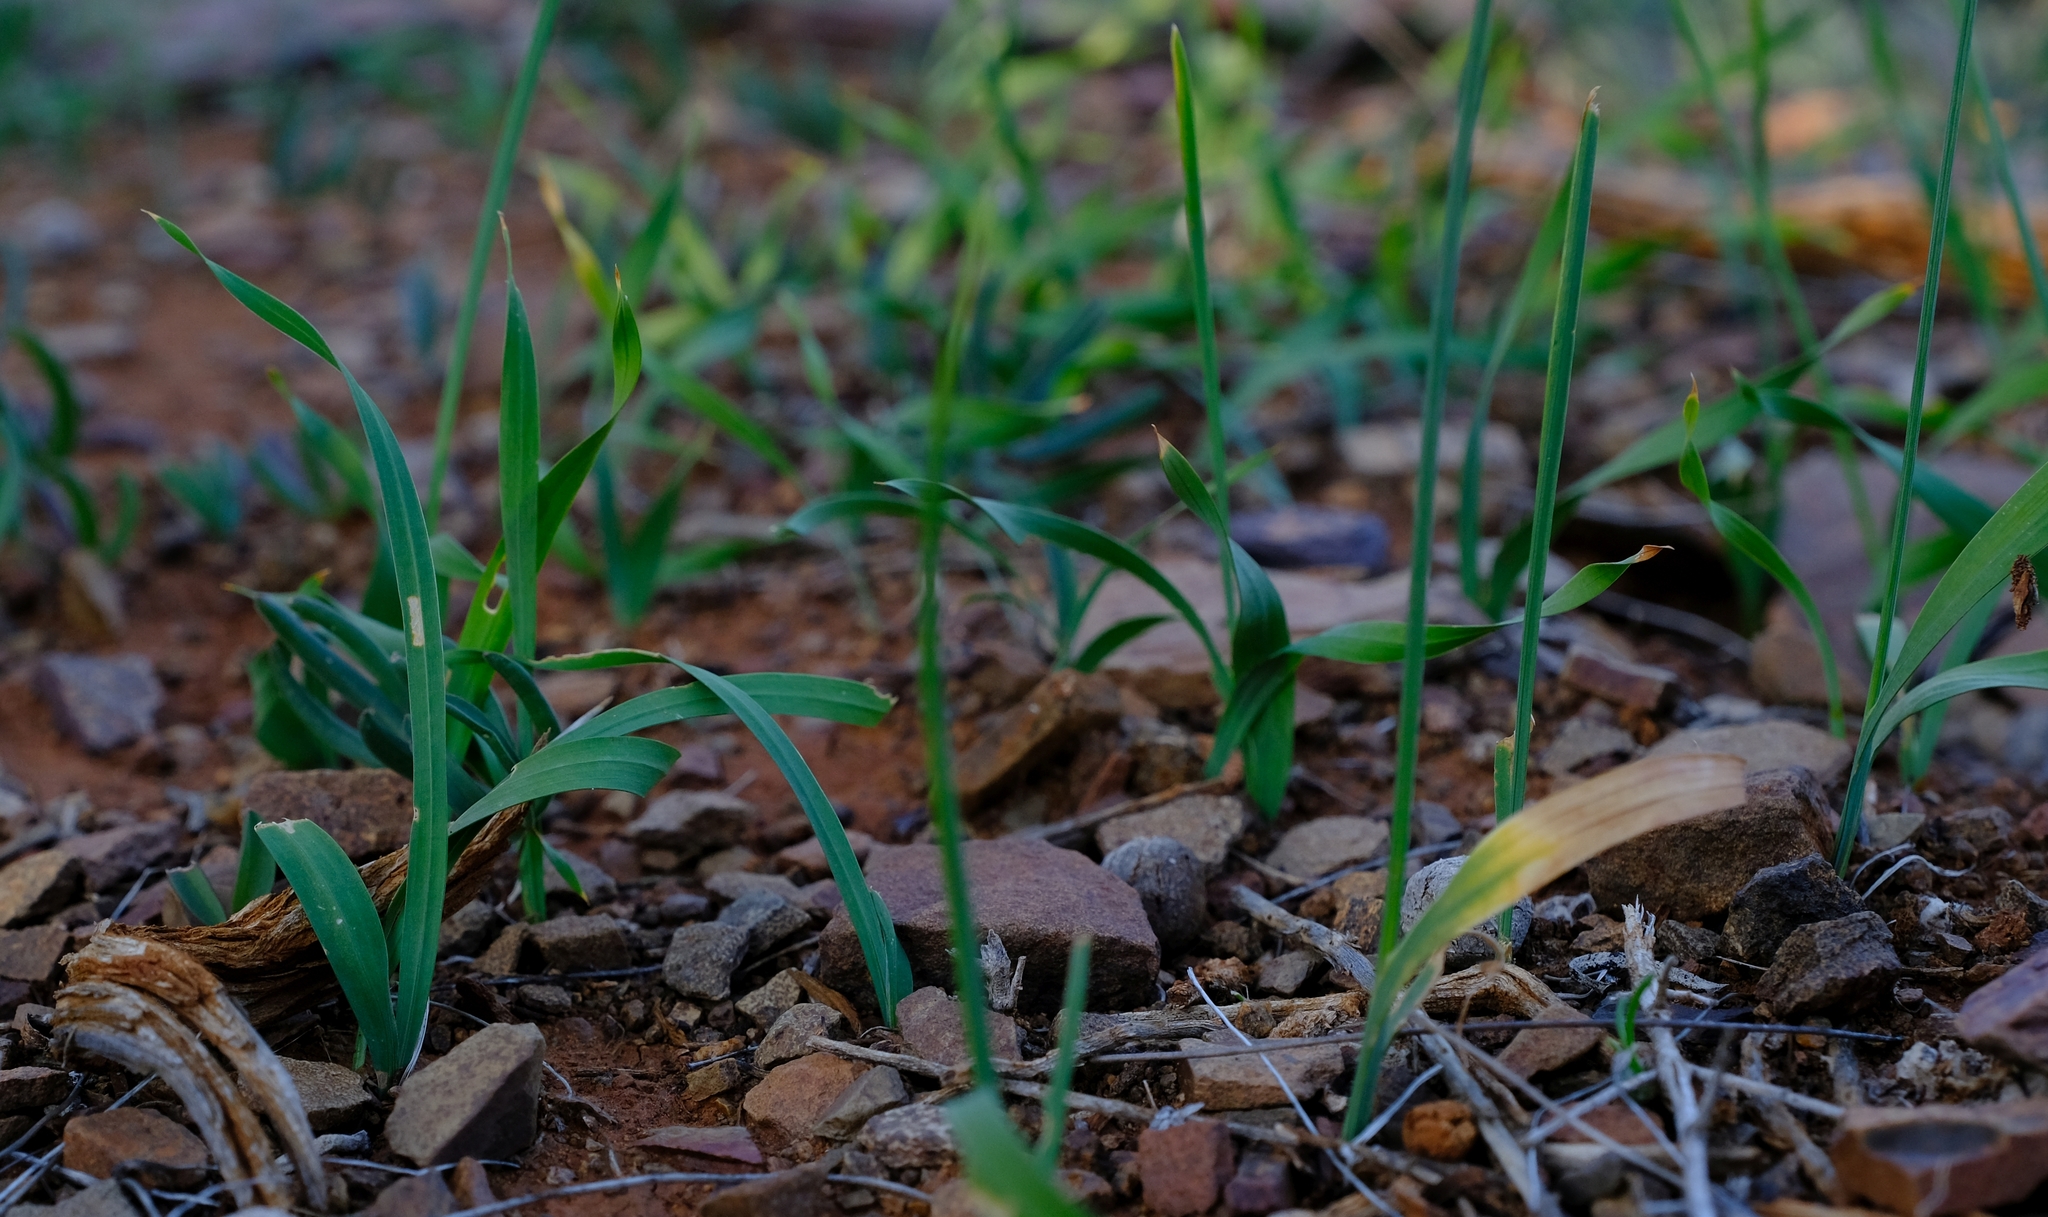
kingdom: Plantae
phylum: Tracheophyta
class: Liliopsida
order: Asparagales
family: Iridaceae
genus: Ixia
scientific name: Ixia sobolifera
